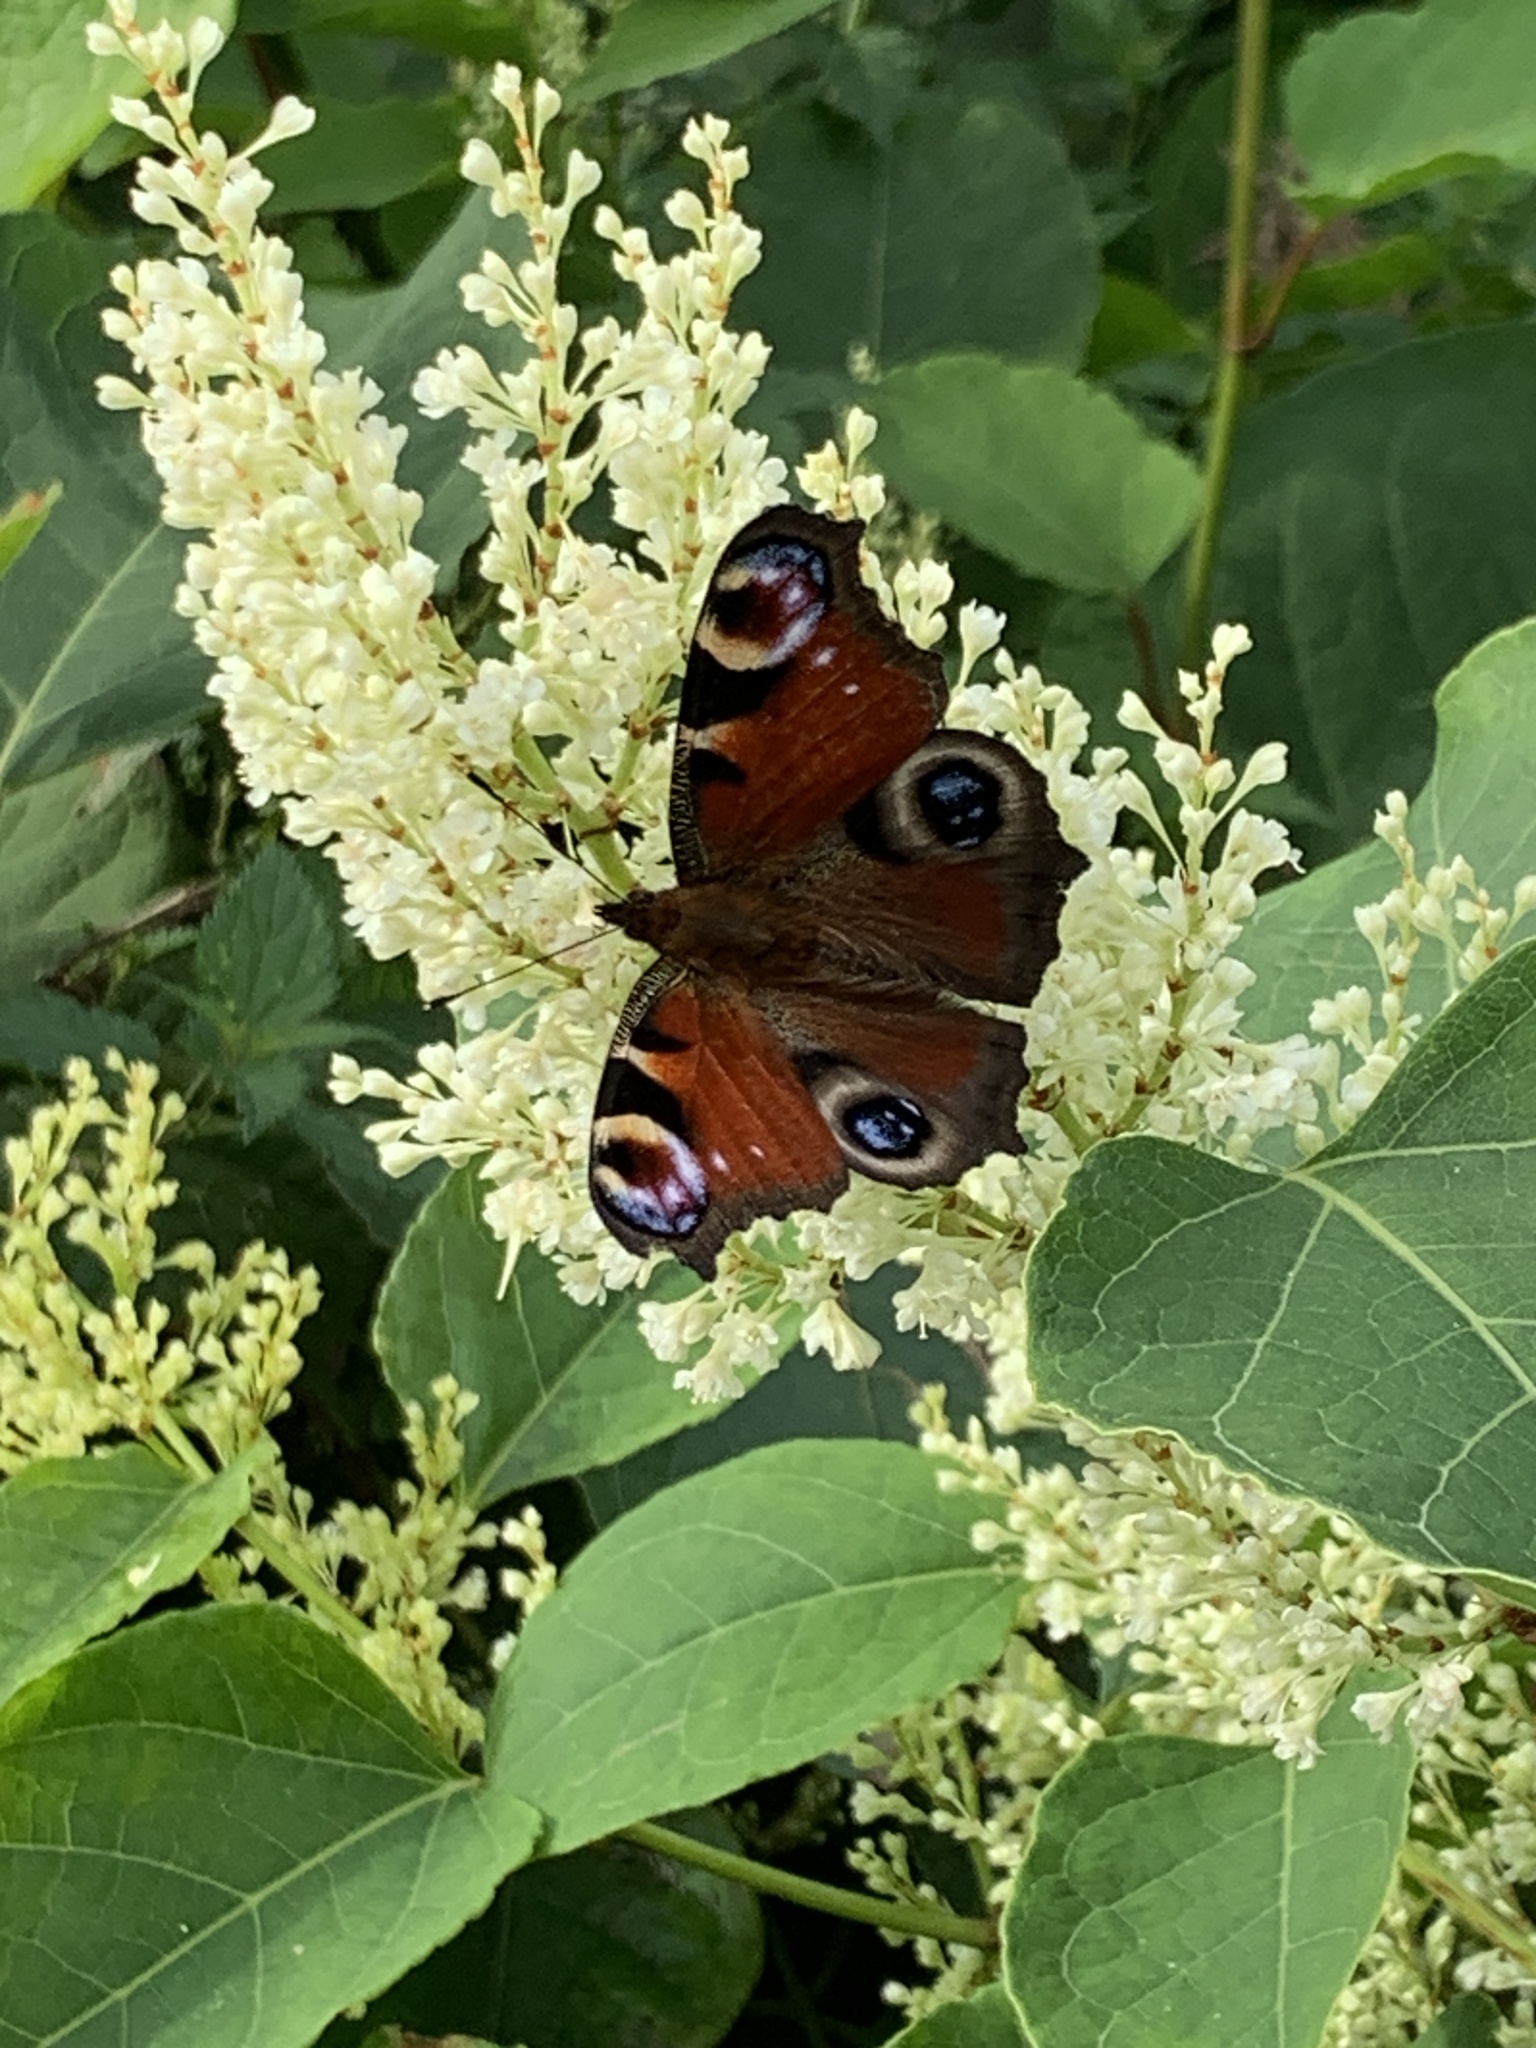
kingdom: Animalia
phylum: Arthropoda
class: Insecta
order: Lepidoptera
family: Nymphalidae
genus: Aglais
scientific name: Aglais io
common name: Peacock
